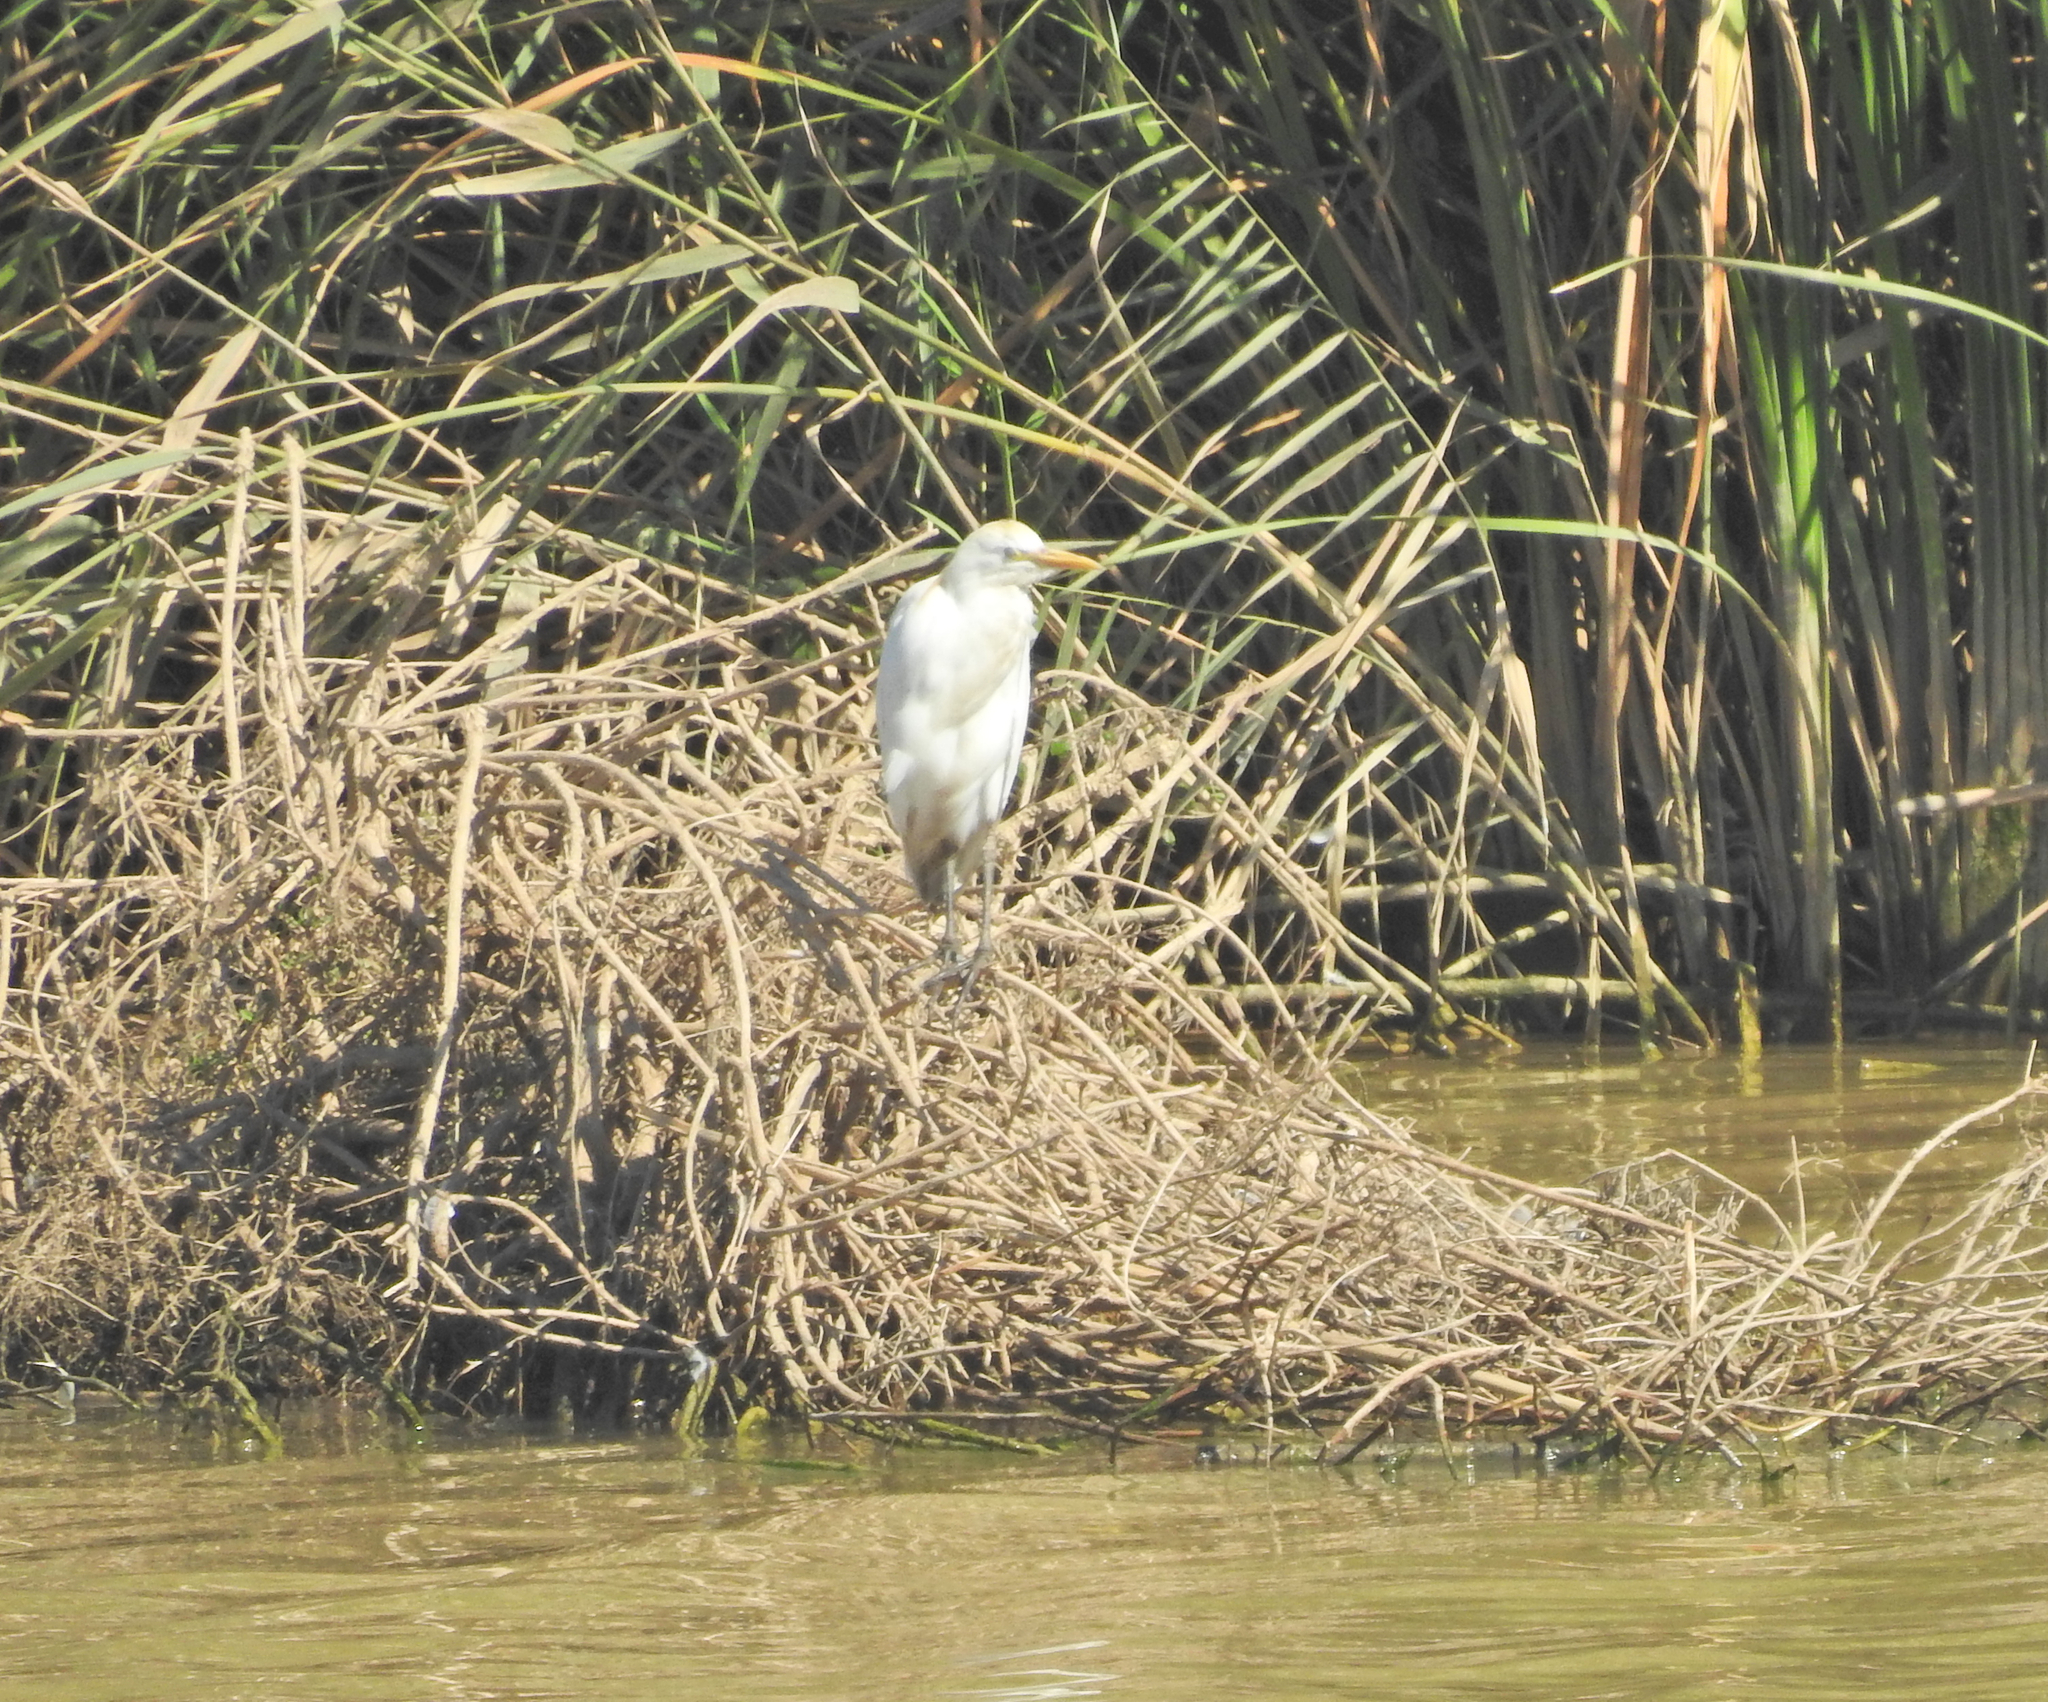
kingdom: Animalia
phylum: Chordata
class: Aves
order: Pelecaniformes
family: Ardeidae
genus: Bubulcus
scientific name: Bubulcus ibis
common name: Cattle egret
